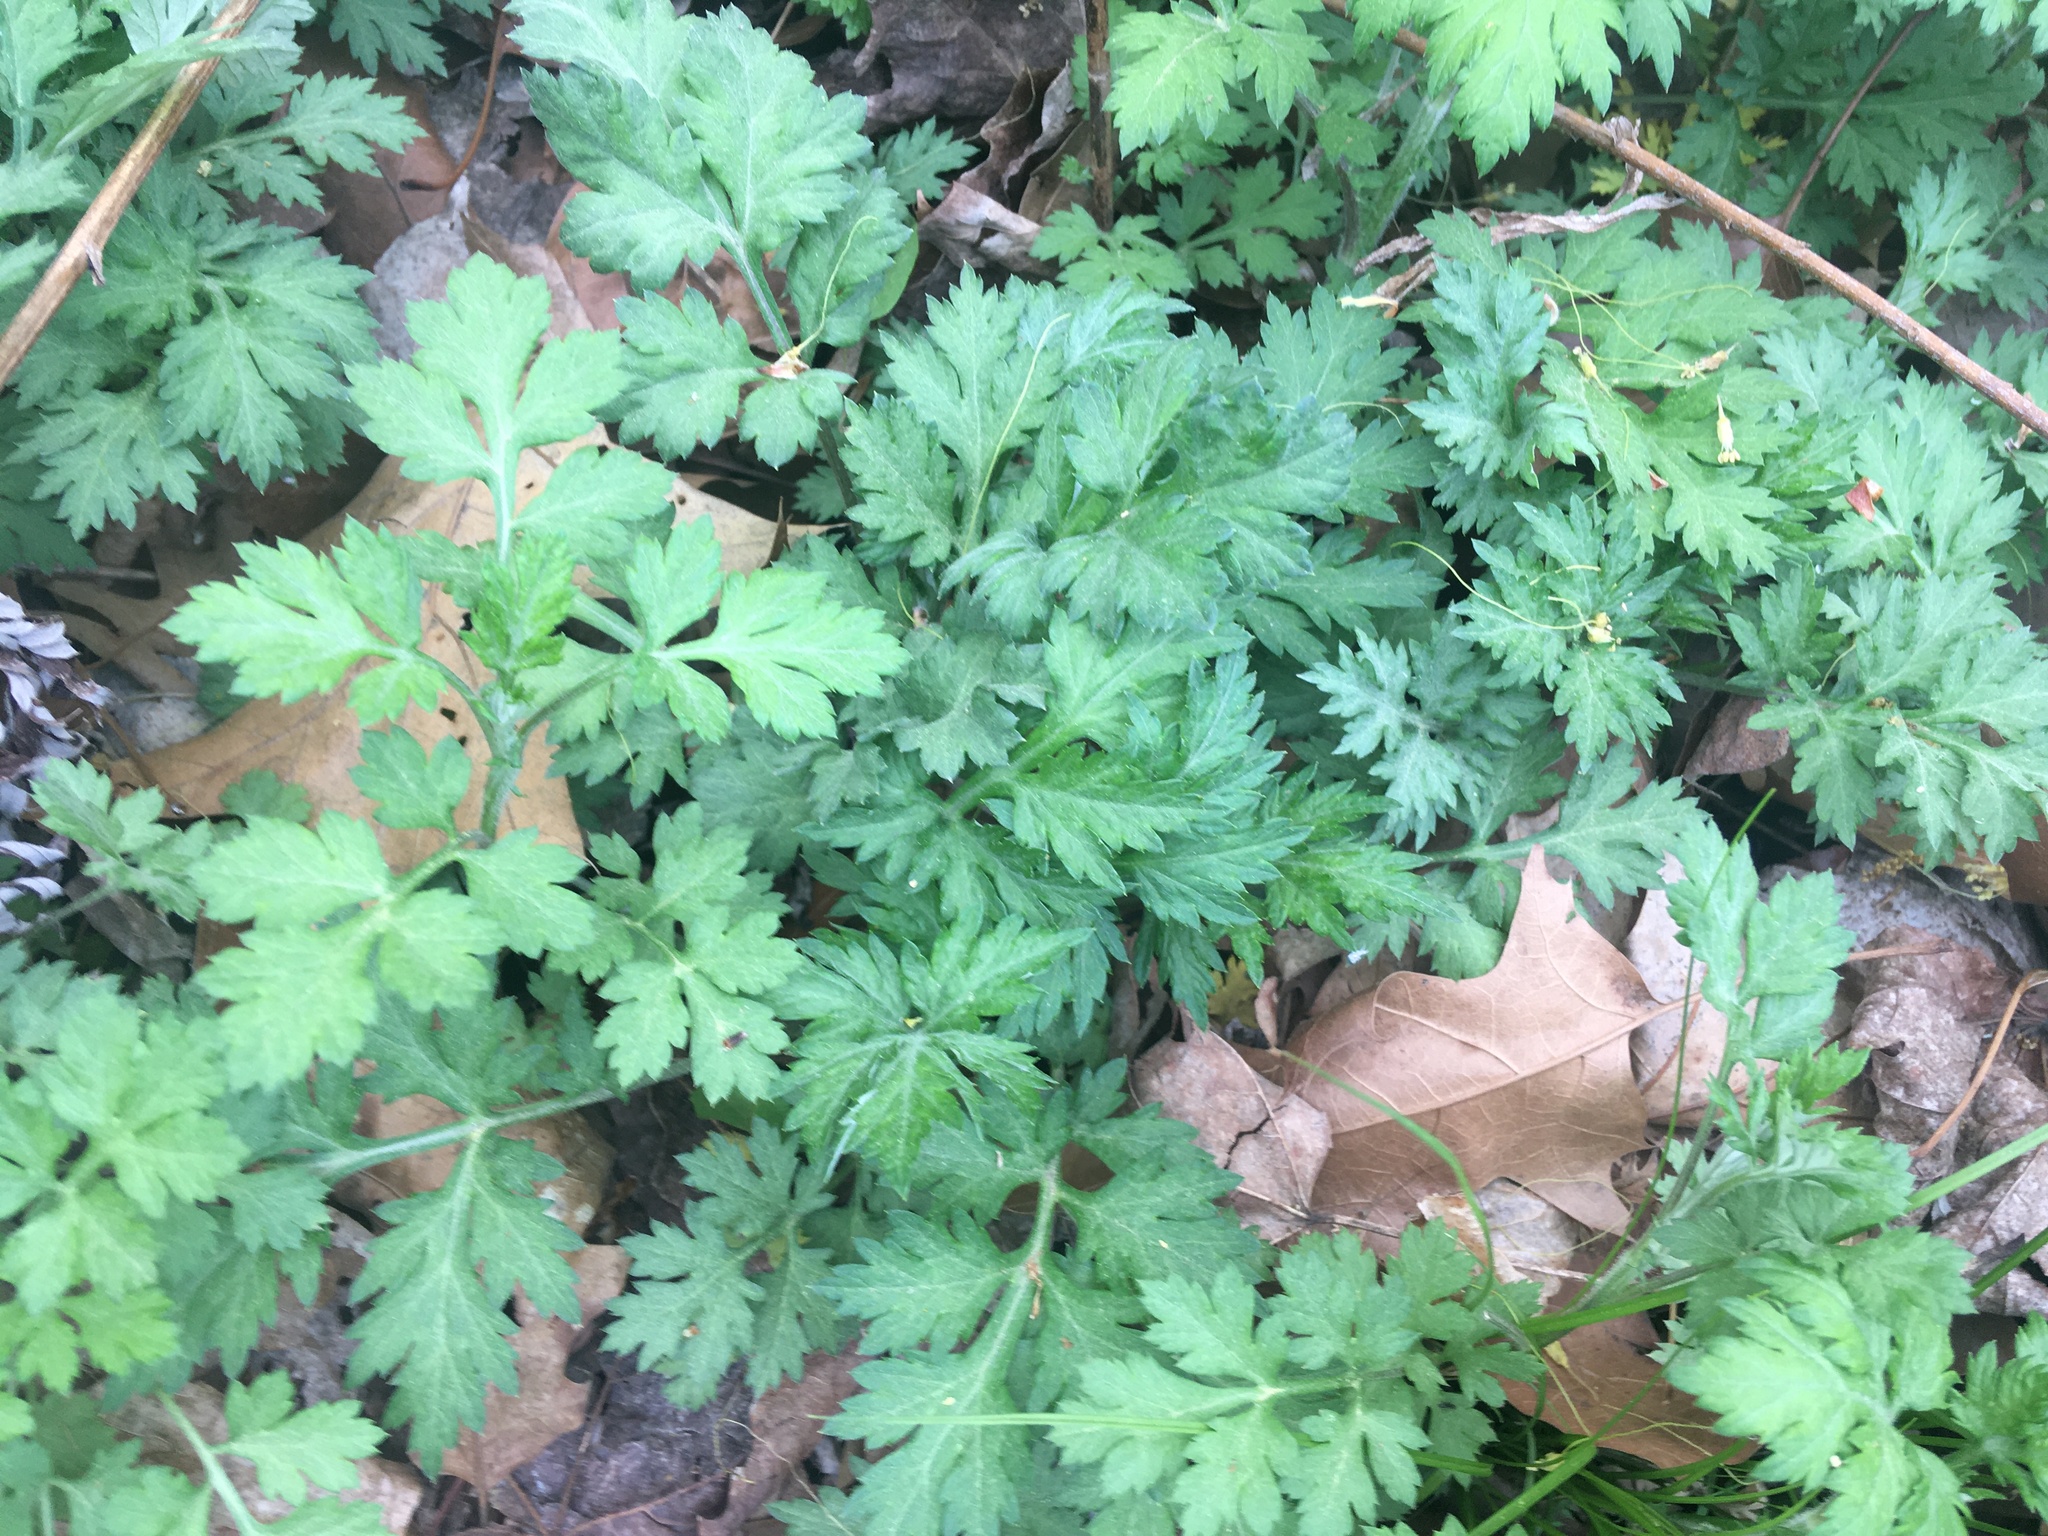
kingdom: Plantae
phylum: Tracheophyta
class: Magnoliopsida
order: Asterales
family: Asteraceae
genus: Artemisia
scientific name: Artemisia vulgaris
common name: Mugwort
